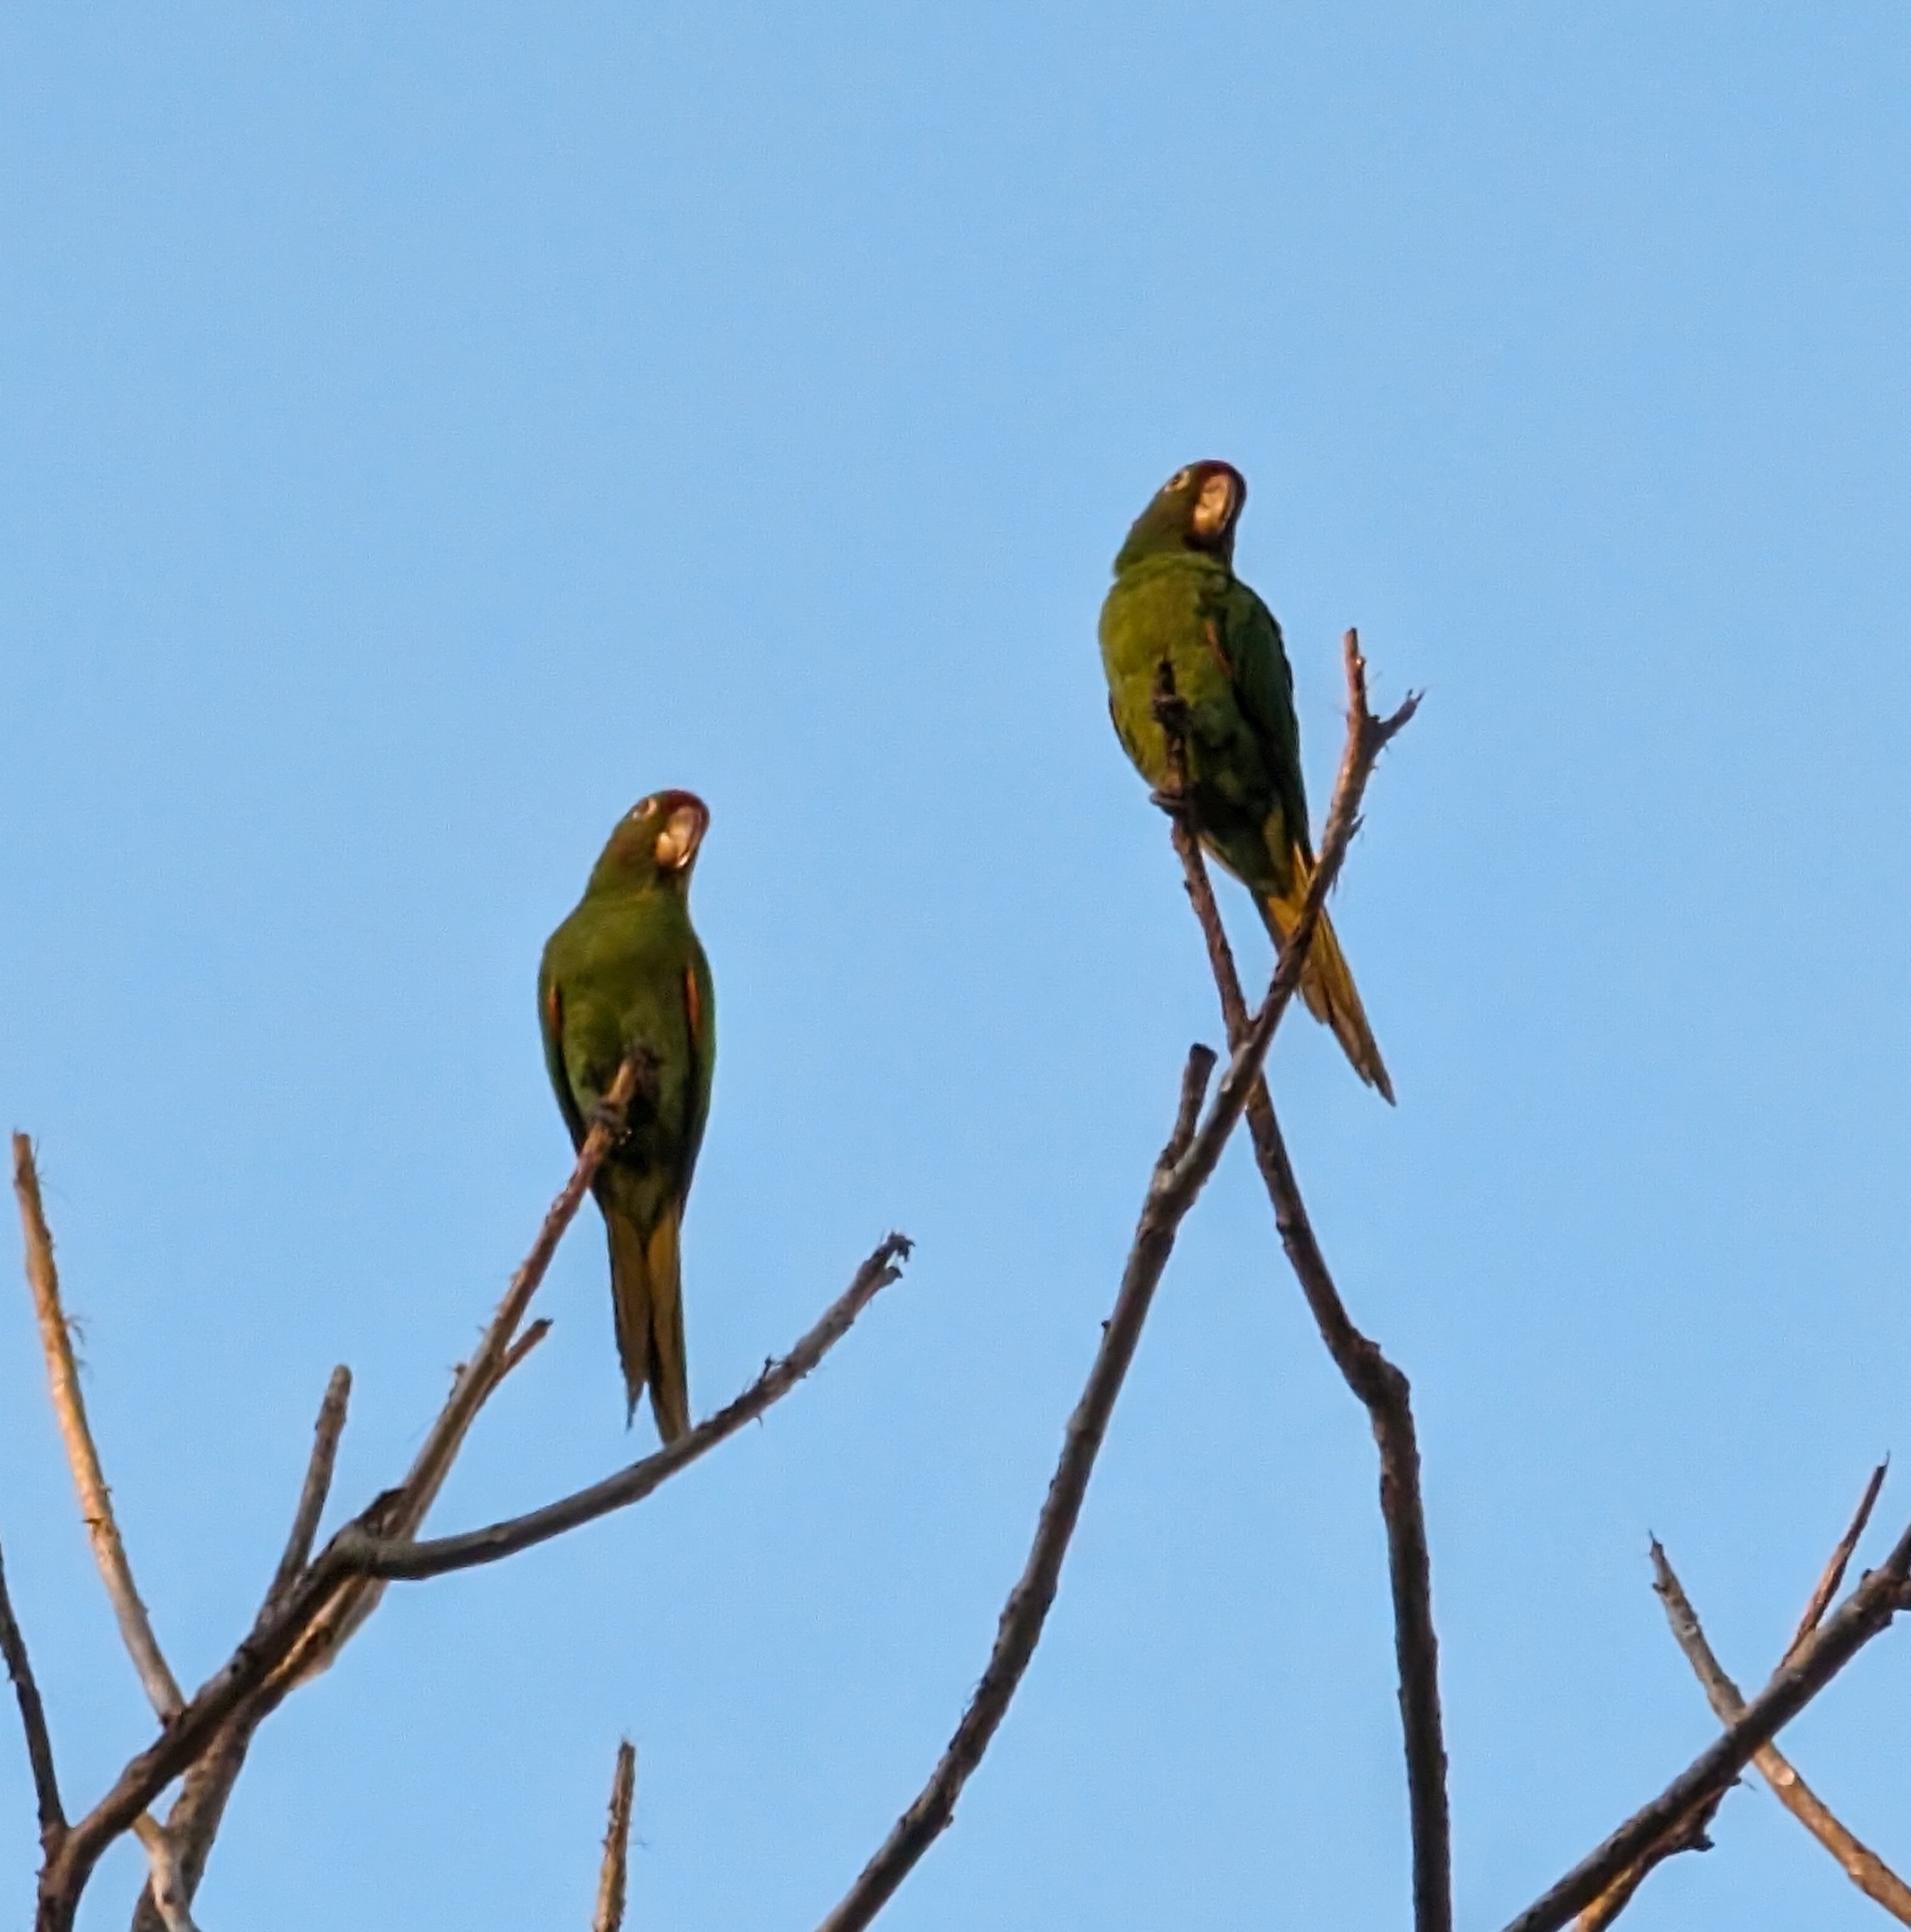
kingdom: Animalia
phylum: Chordata
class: Aves
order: Psittaciformes
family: Psittacidae
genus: Aratinga
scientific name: Aratinga finschi
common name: Crimson-fronted parakeet
